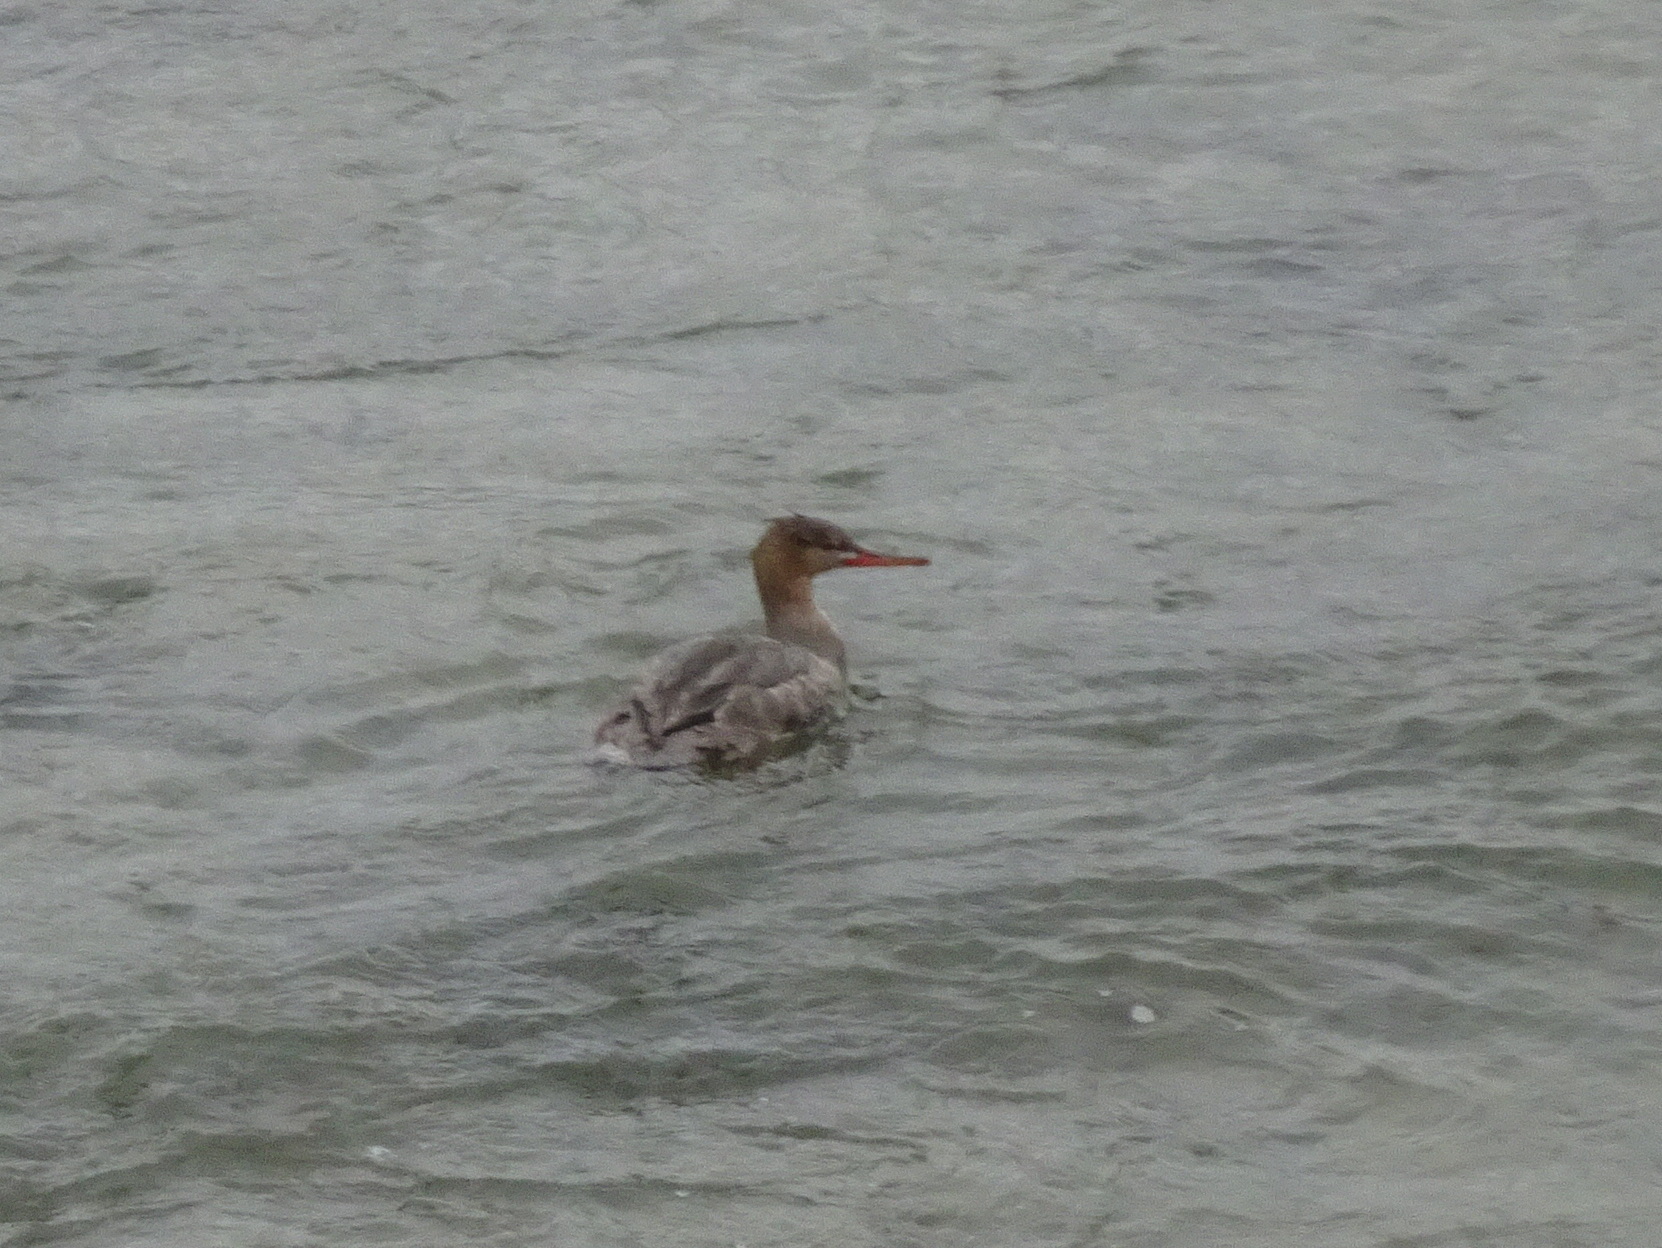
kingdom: Animalia
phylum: Chordata
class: Aves
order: Anseriformes
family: Anatidae
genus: Mergus
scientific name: Mergus serrator
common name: Red-breasted merganser
